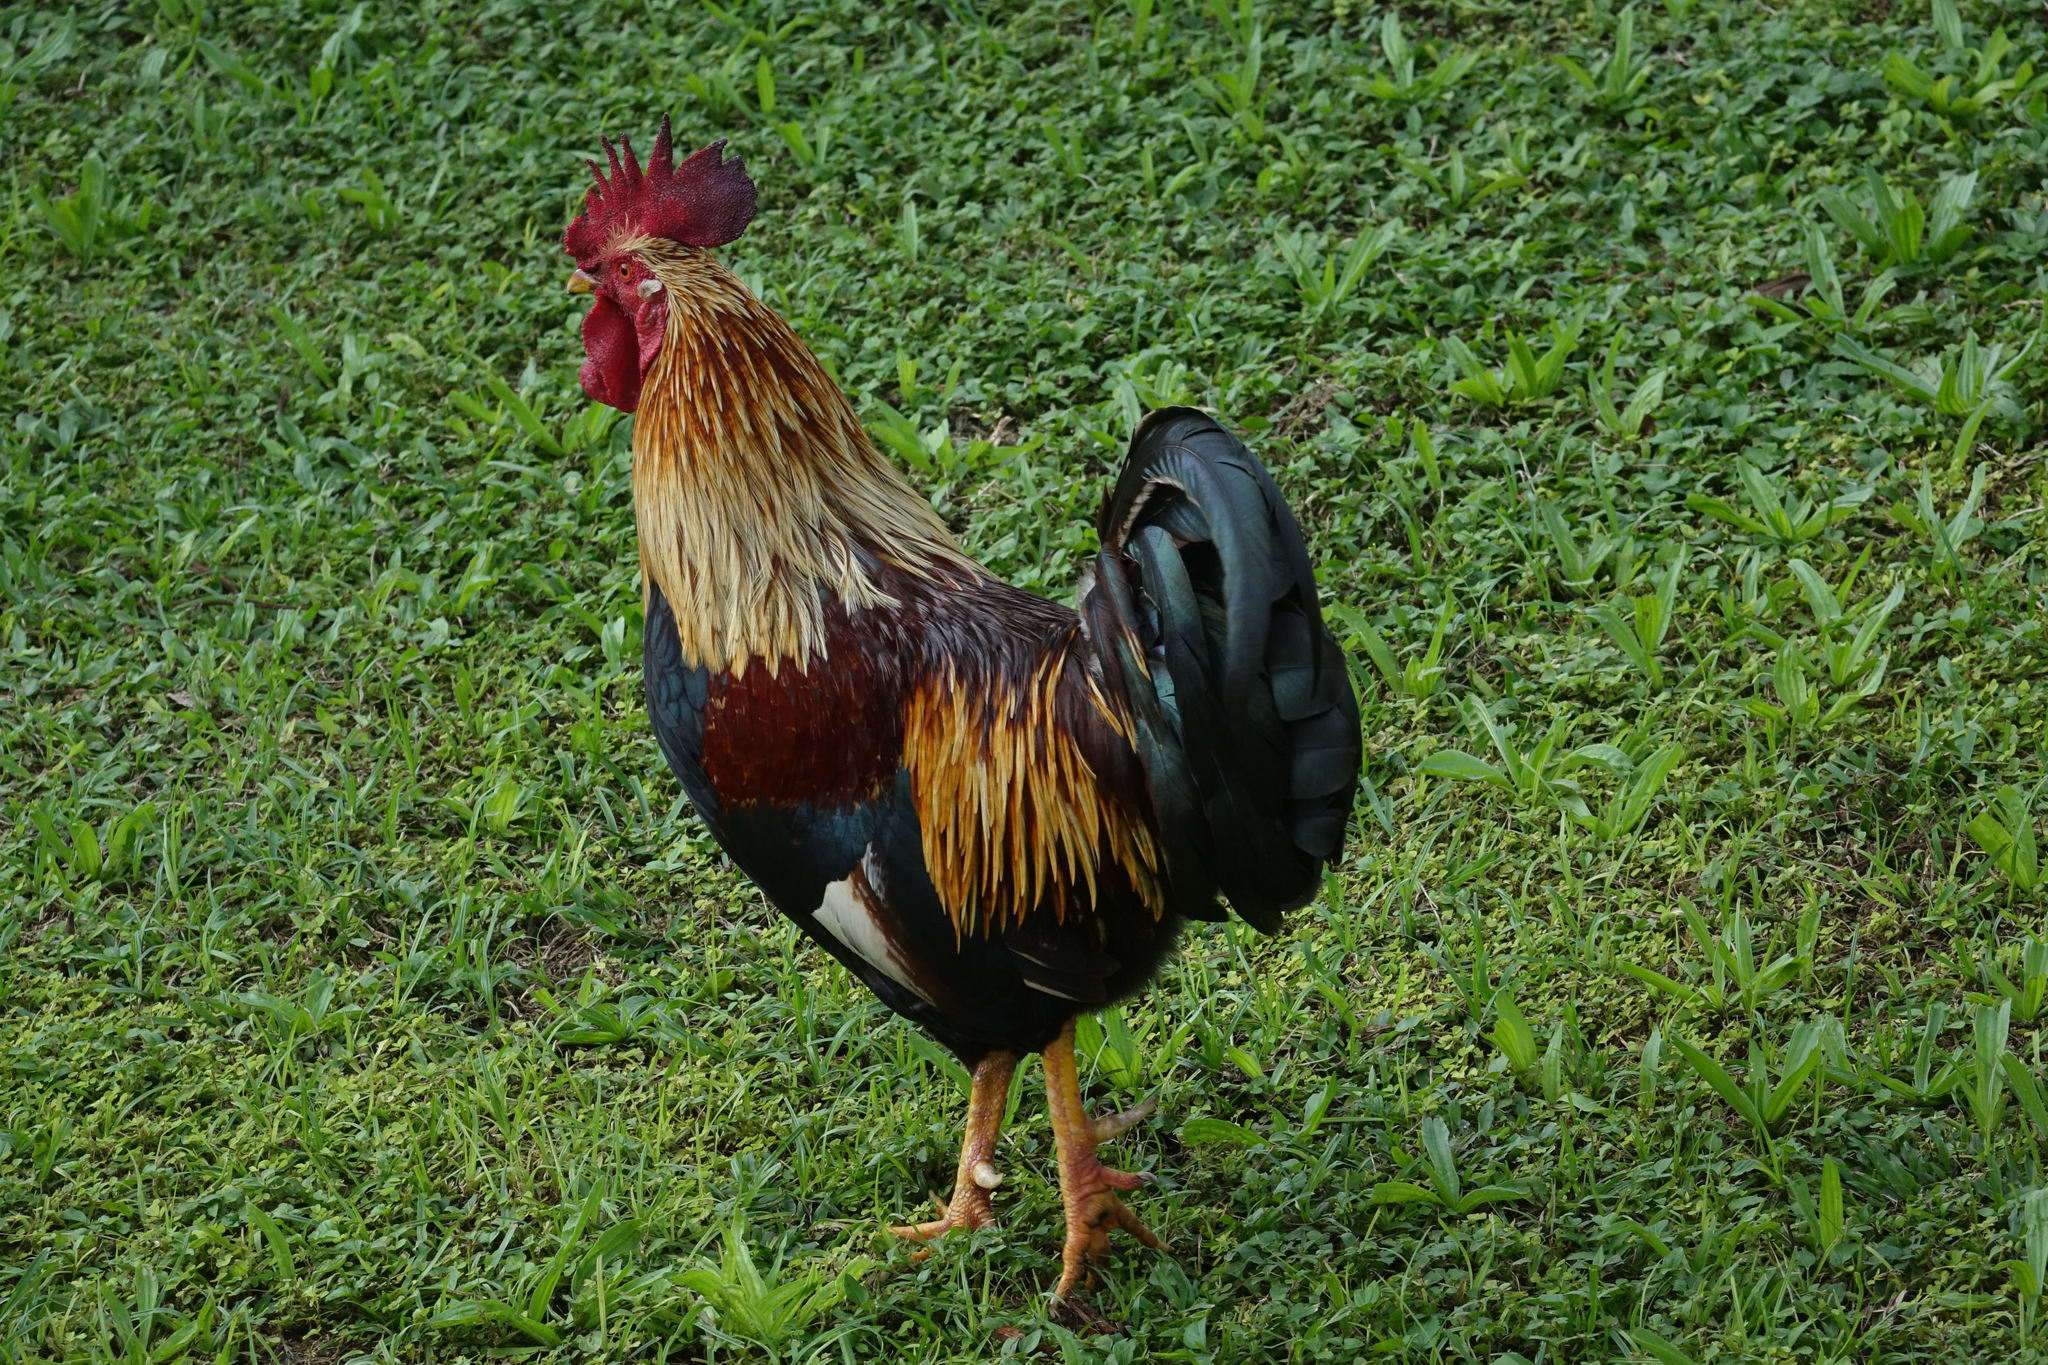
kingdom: Animalia
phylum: Chordata
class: Aves
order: Galliformes
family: Phasianidae
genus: Gallus
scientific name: Gallus gallus
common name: Red junglefowl
